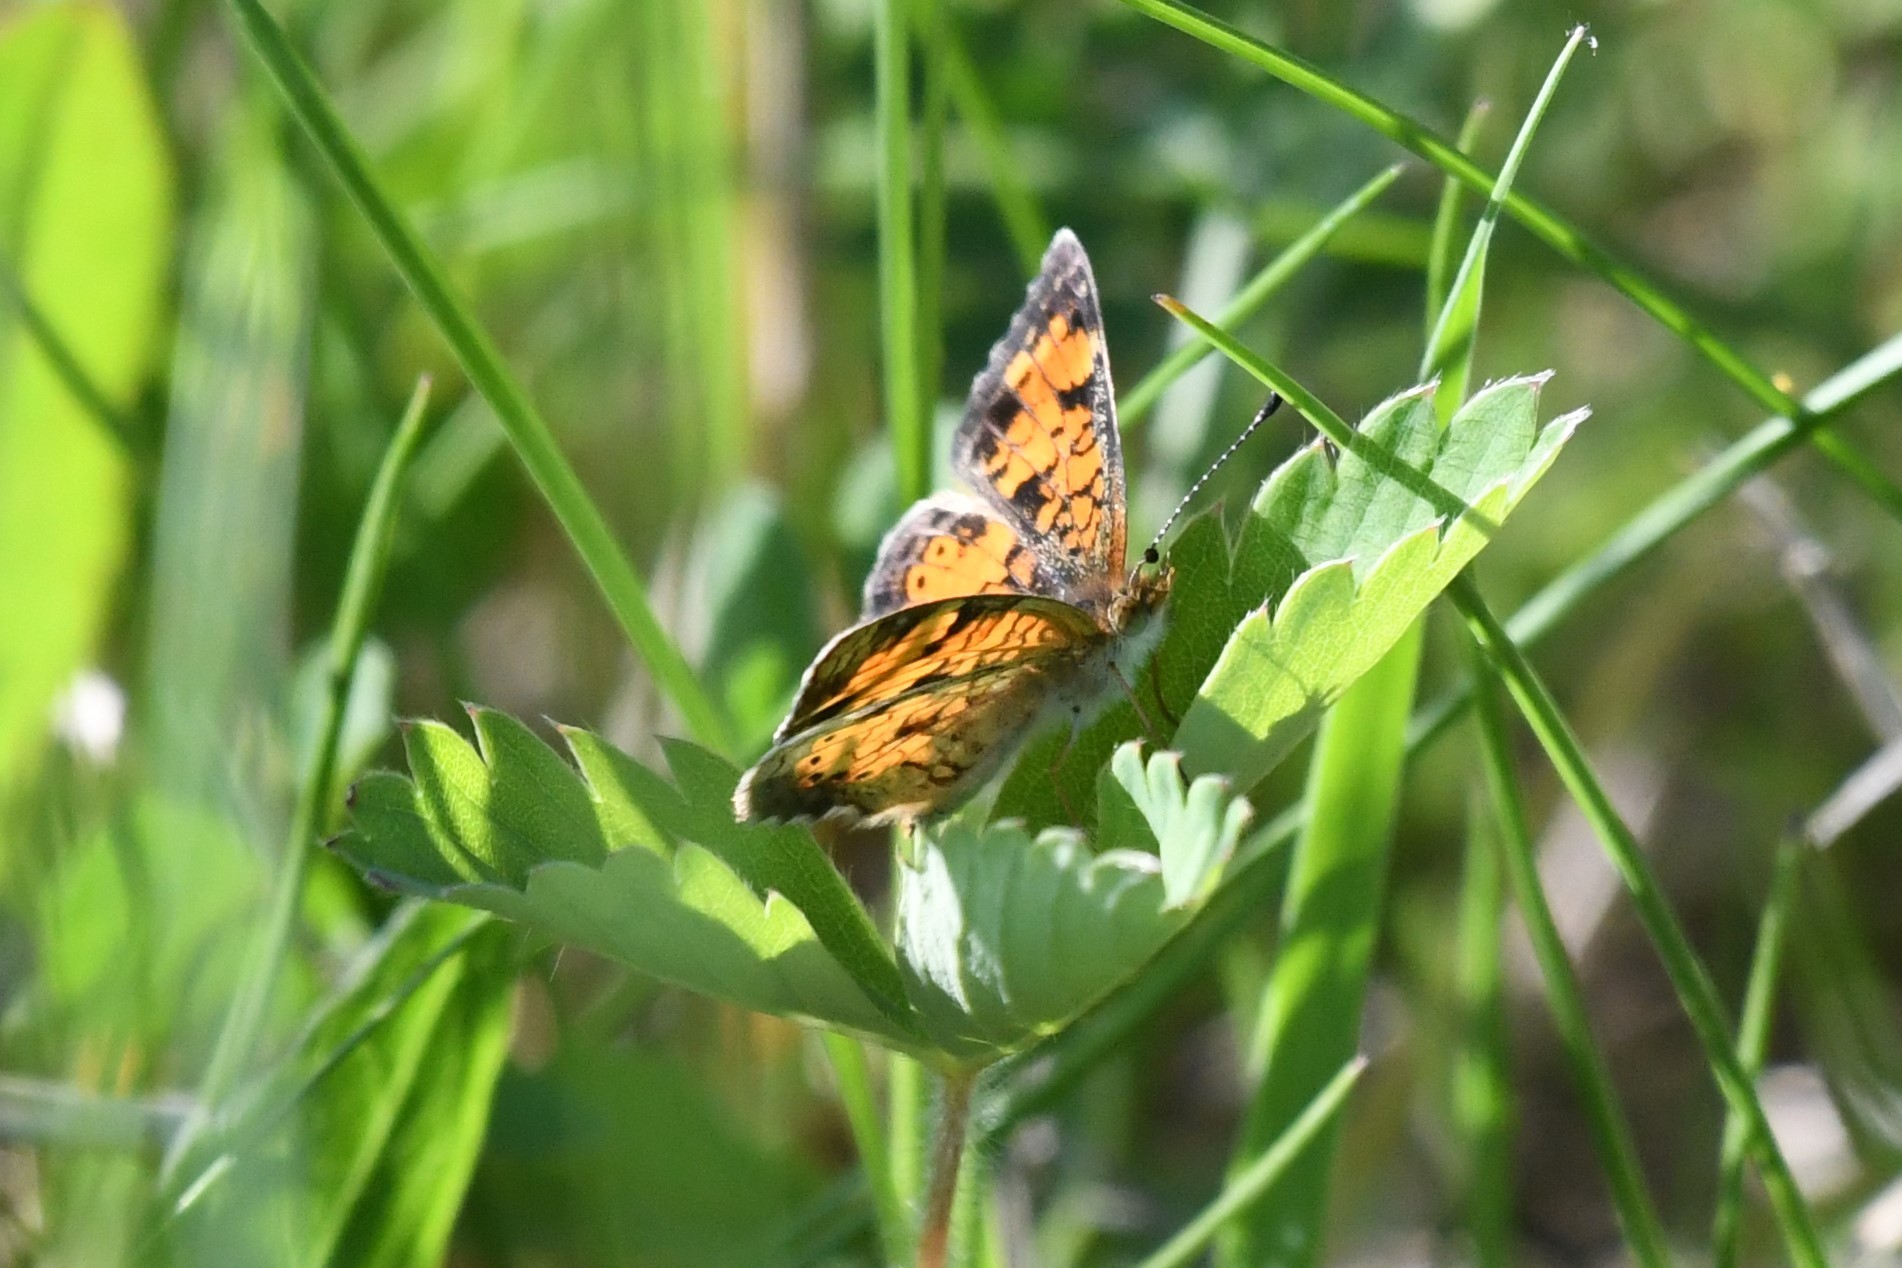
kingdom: Animalia
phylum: Arthropoda
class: Insecta
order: Lepidoptera
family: Nymphalidae
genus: Phyciodes
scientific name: Phyciodes tharos
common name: Pearl crescent
